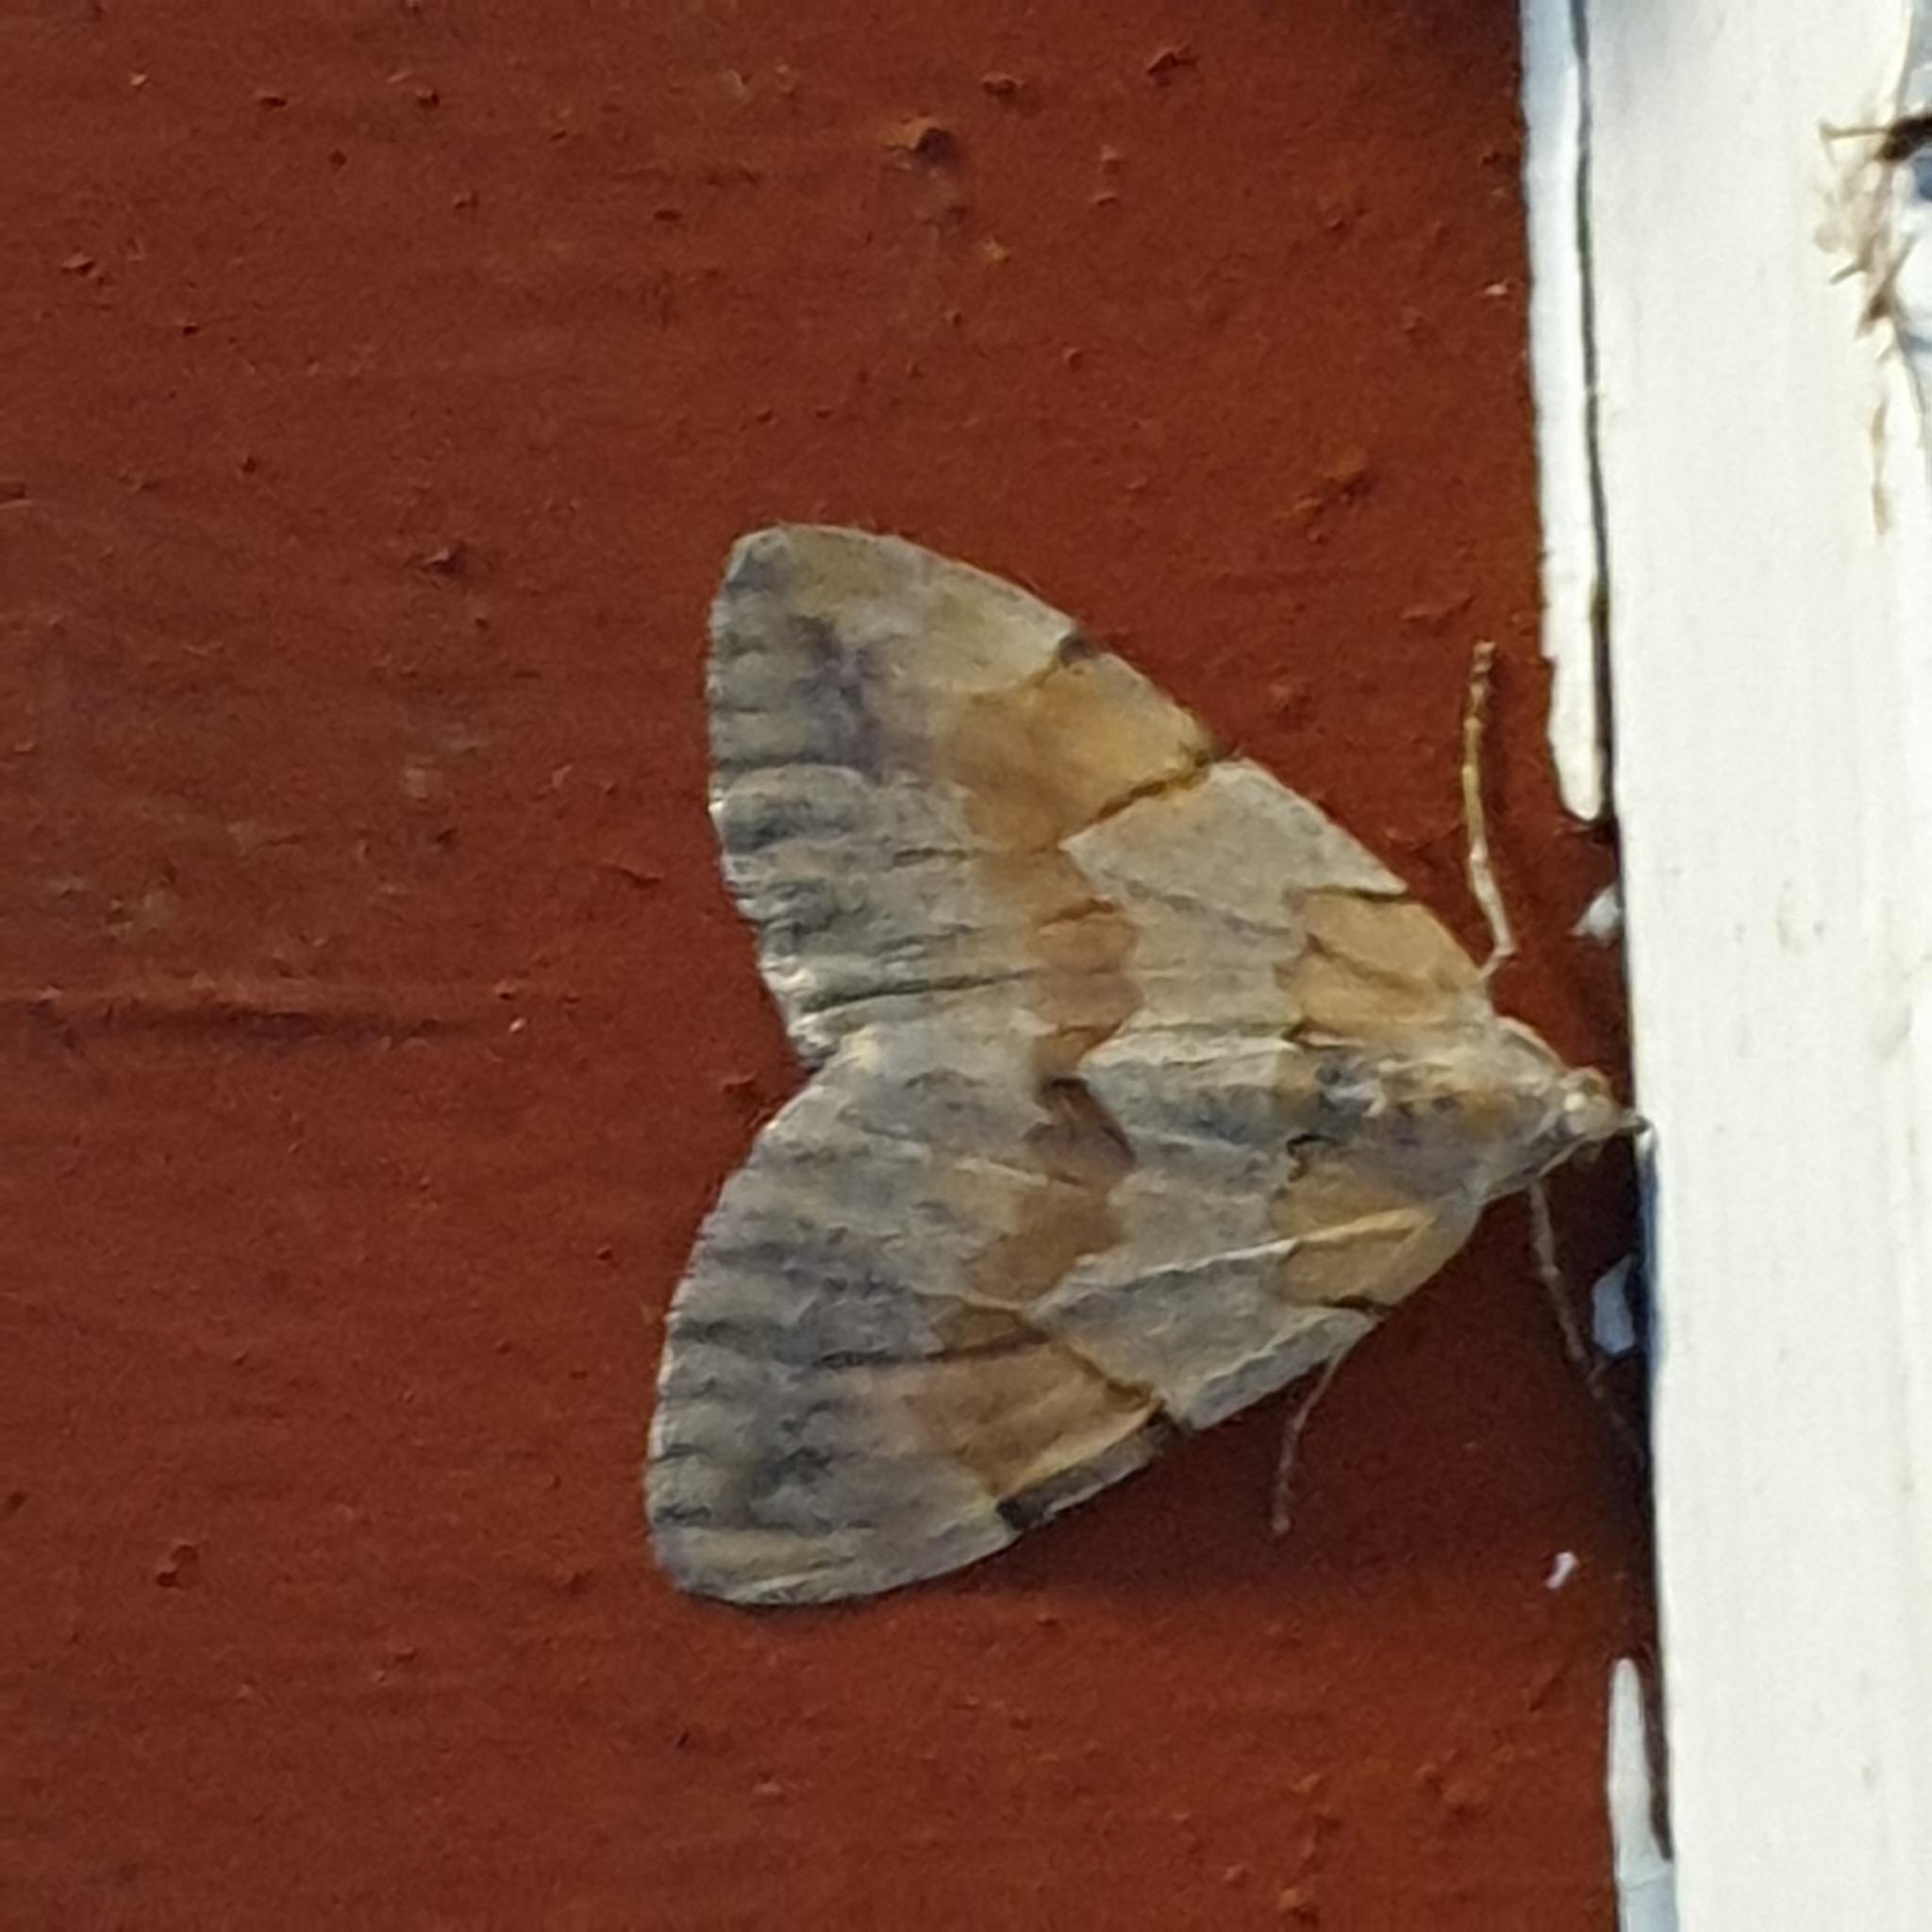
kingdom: Animalia
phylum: Arthropoda
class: Insecta
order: Lepidoptera
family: Geometridae
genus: Pennithera
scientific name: Pennithera firmata
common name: Pine carpet
